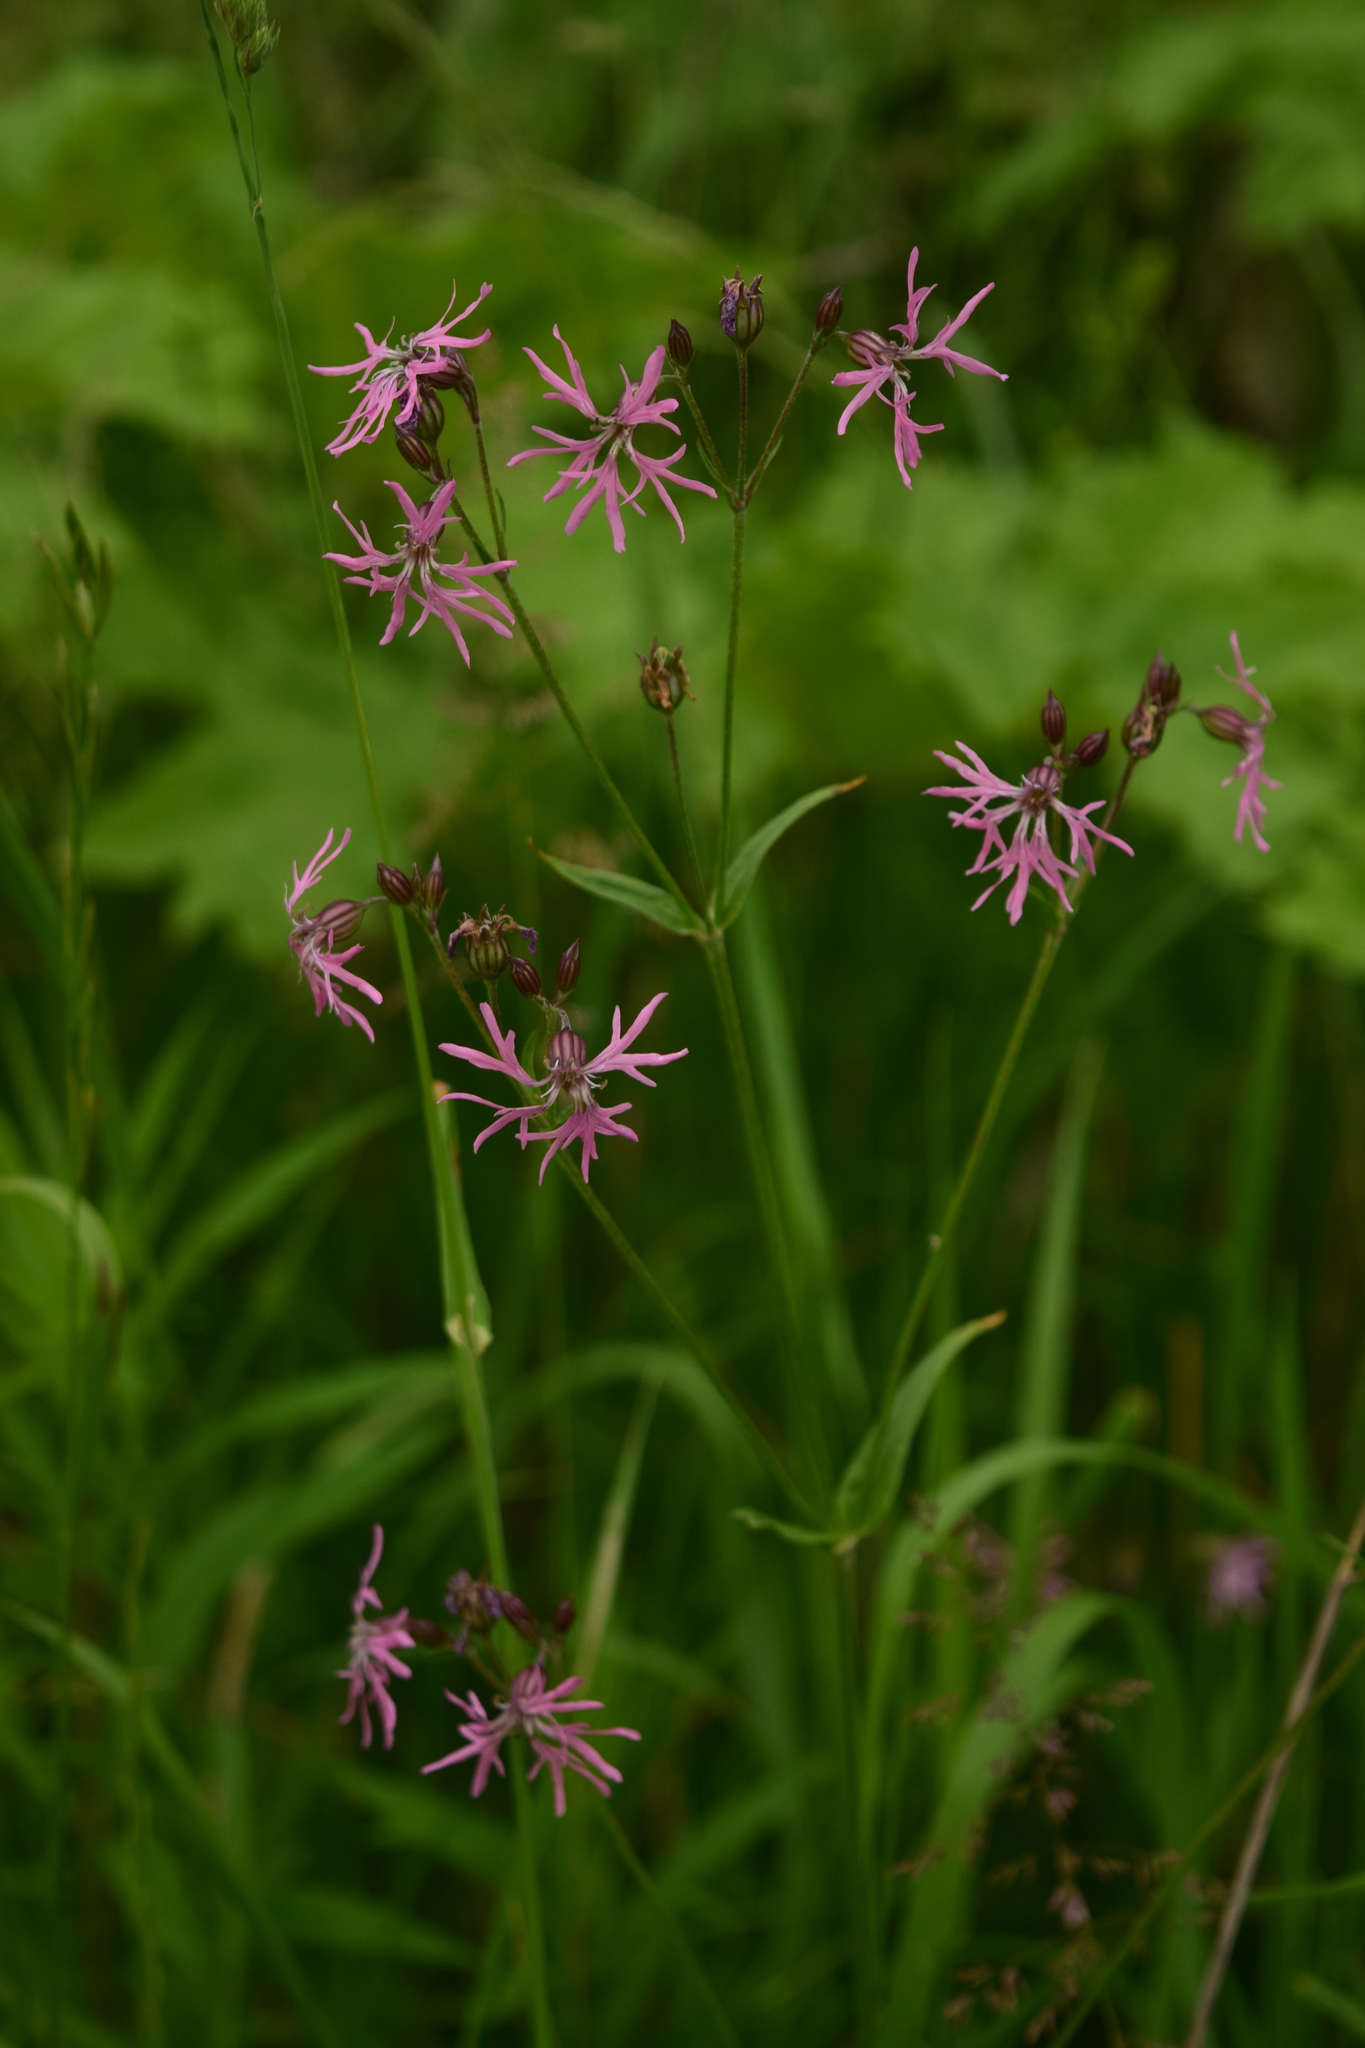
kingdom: Plantae
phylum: Tracheophyta
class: Magnoliopsida
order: Caryophyllales
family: Caryophyllaceae
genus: Silene
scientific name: Silene flos-cuculi
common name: Ragged-robin
